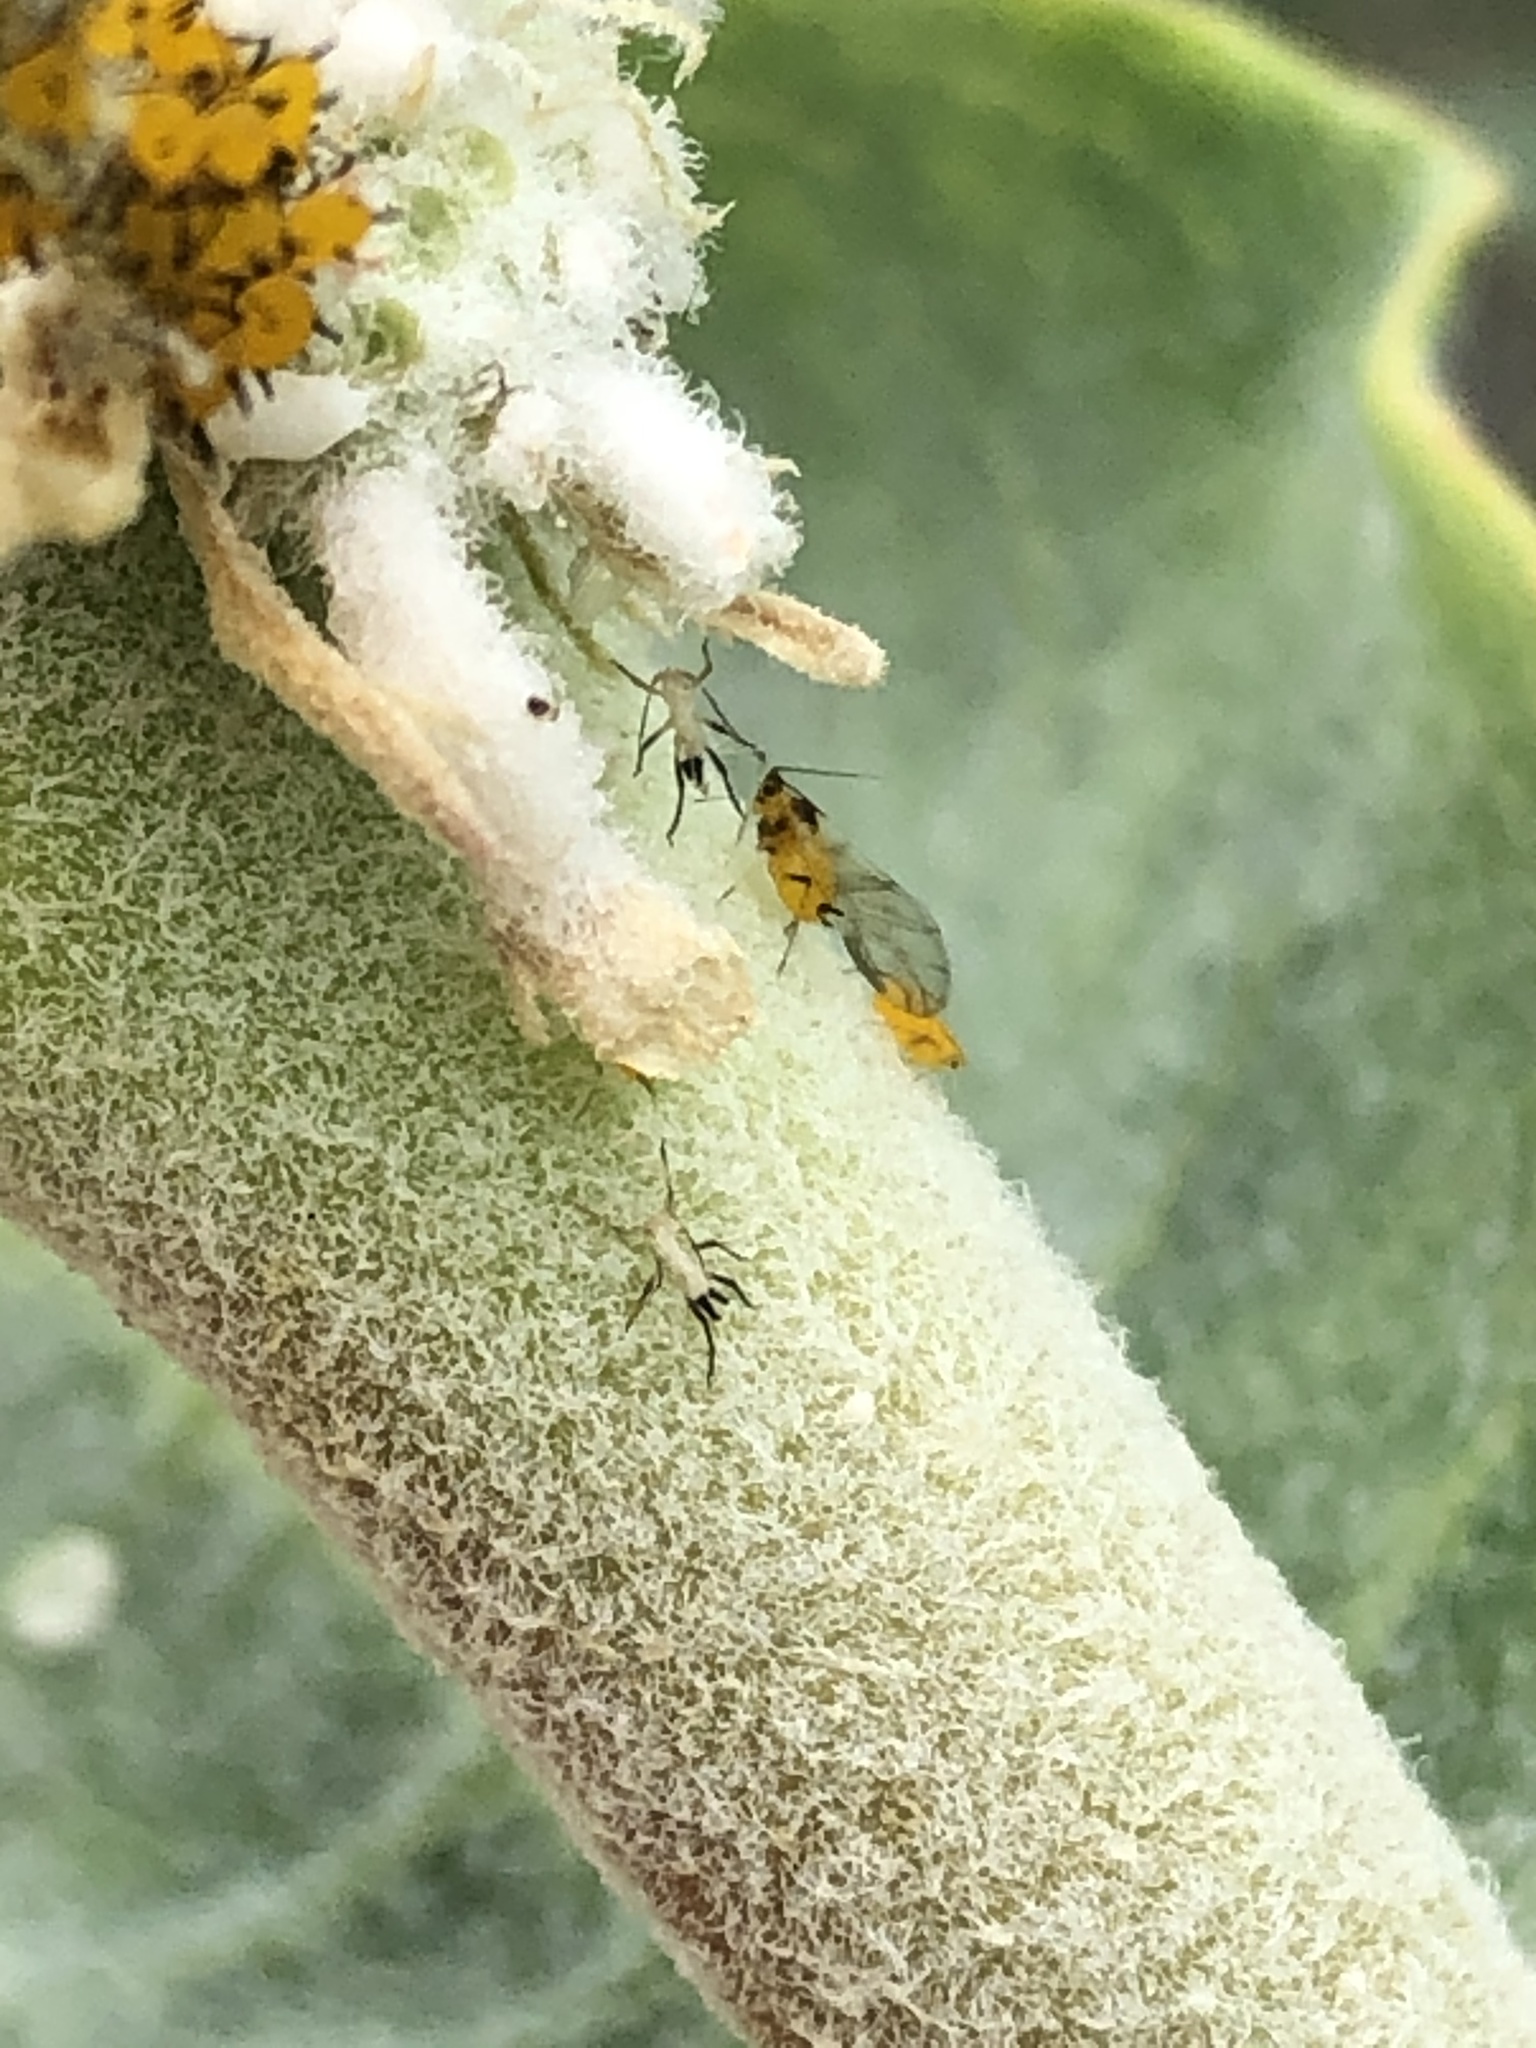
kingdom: Animalia
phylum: Arthropoda
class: Insecta
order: Hemiptera
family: Aphididae
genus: Aphis
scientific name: Aphis nerii
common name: Oleander aphid
